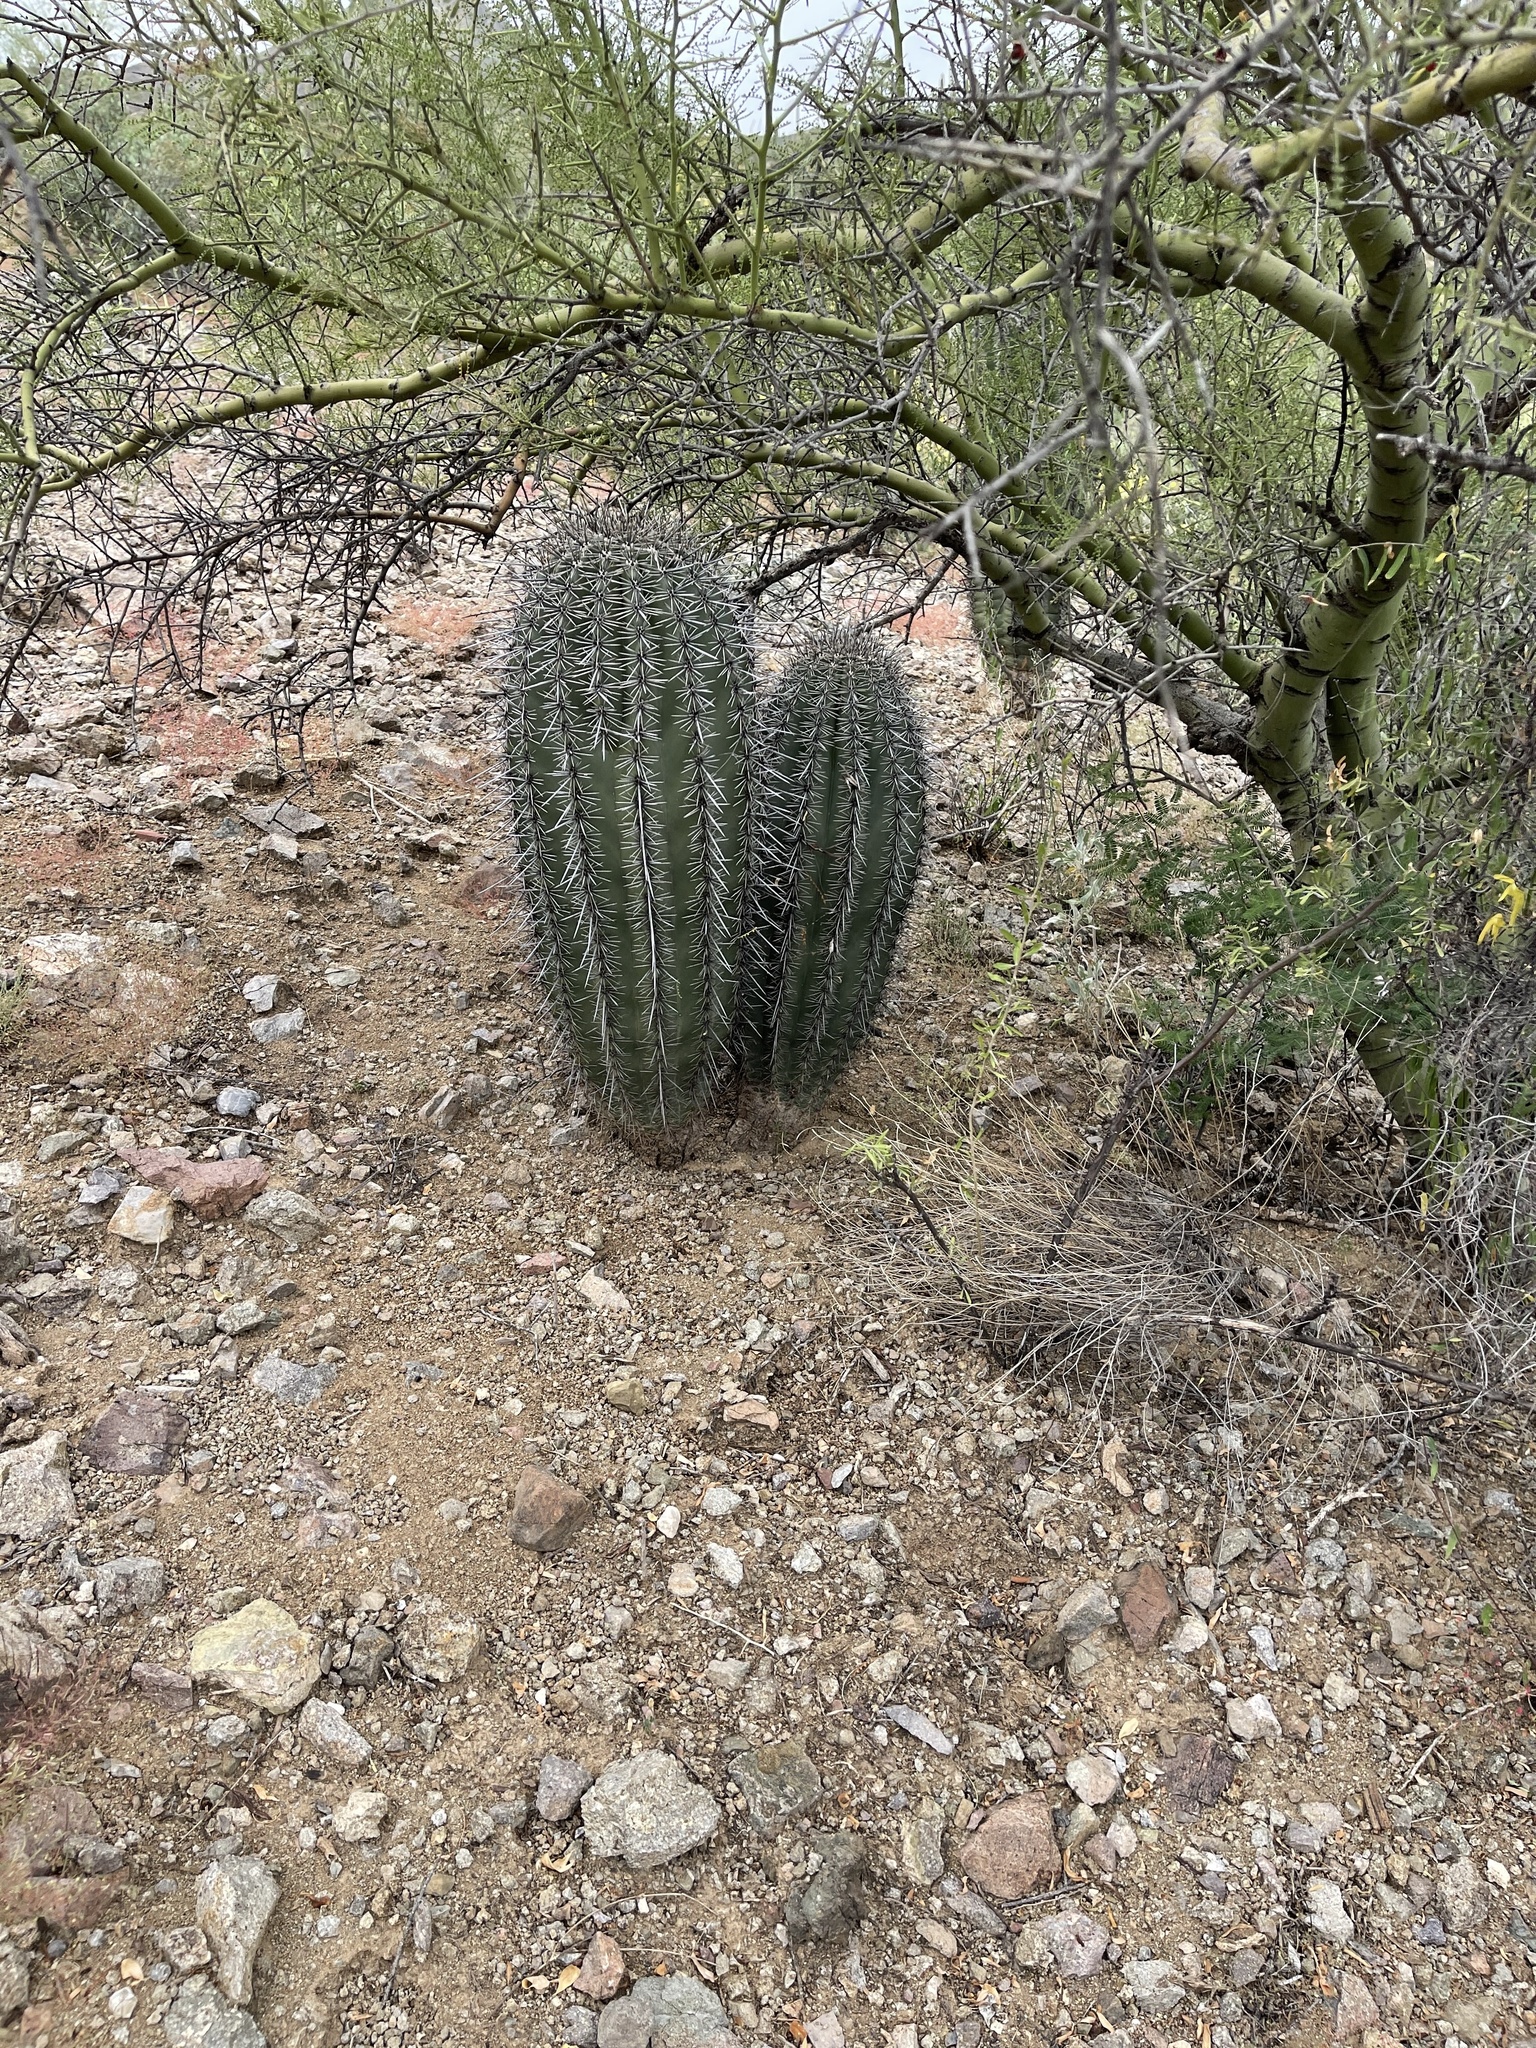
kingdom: Plantae
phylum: Tracheophyta
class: Magnoliopsida
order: Caryophyllales
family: Cactaceae
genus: Carnegiea
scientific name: Carnegiea gigantea
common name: Saguaro
